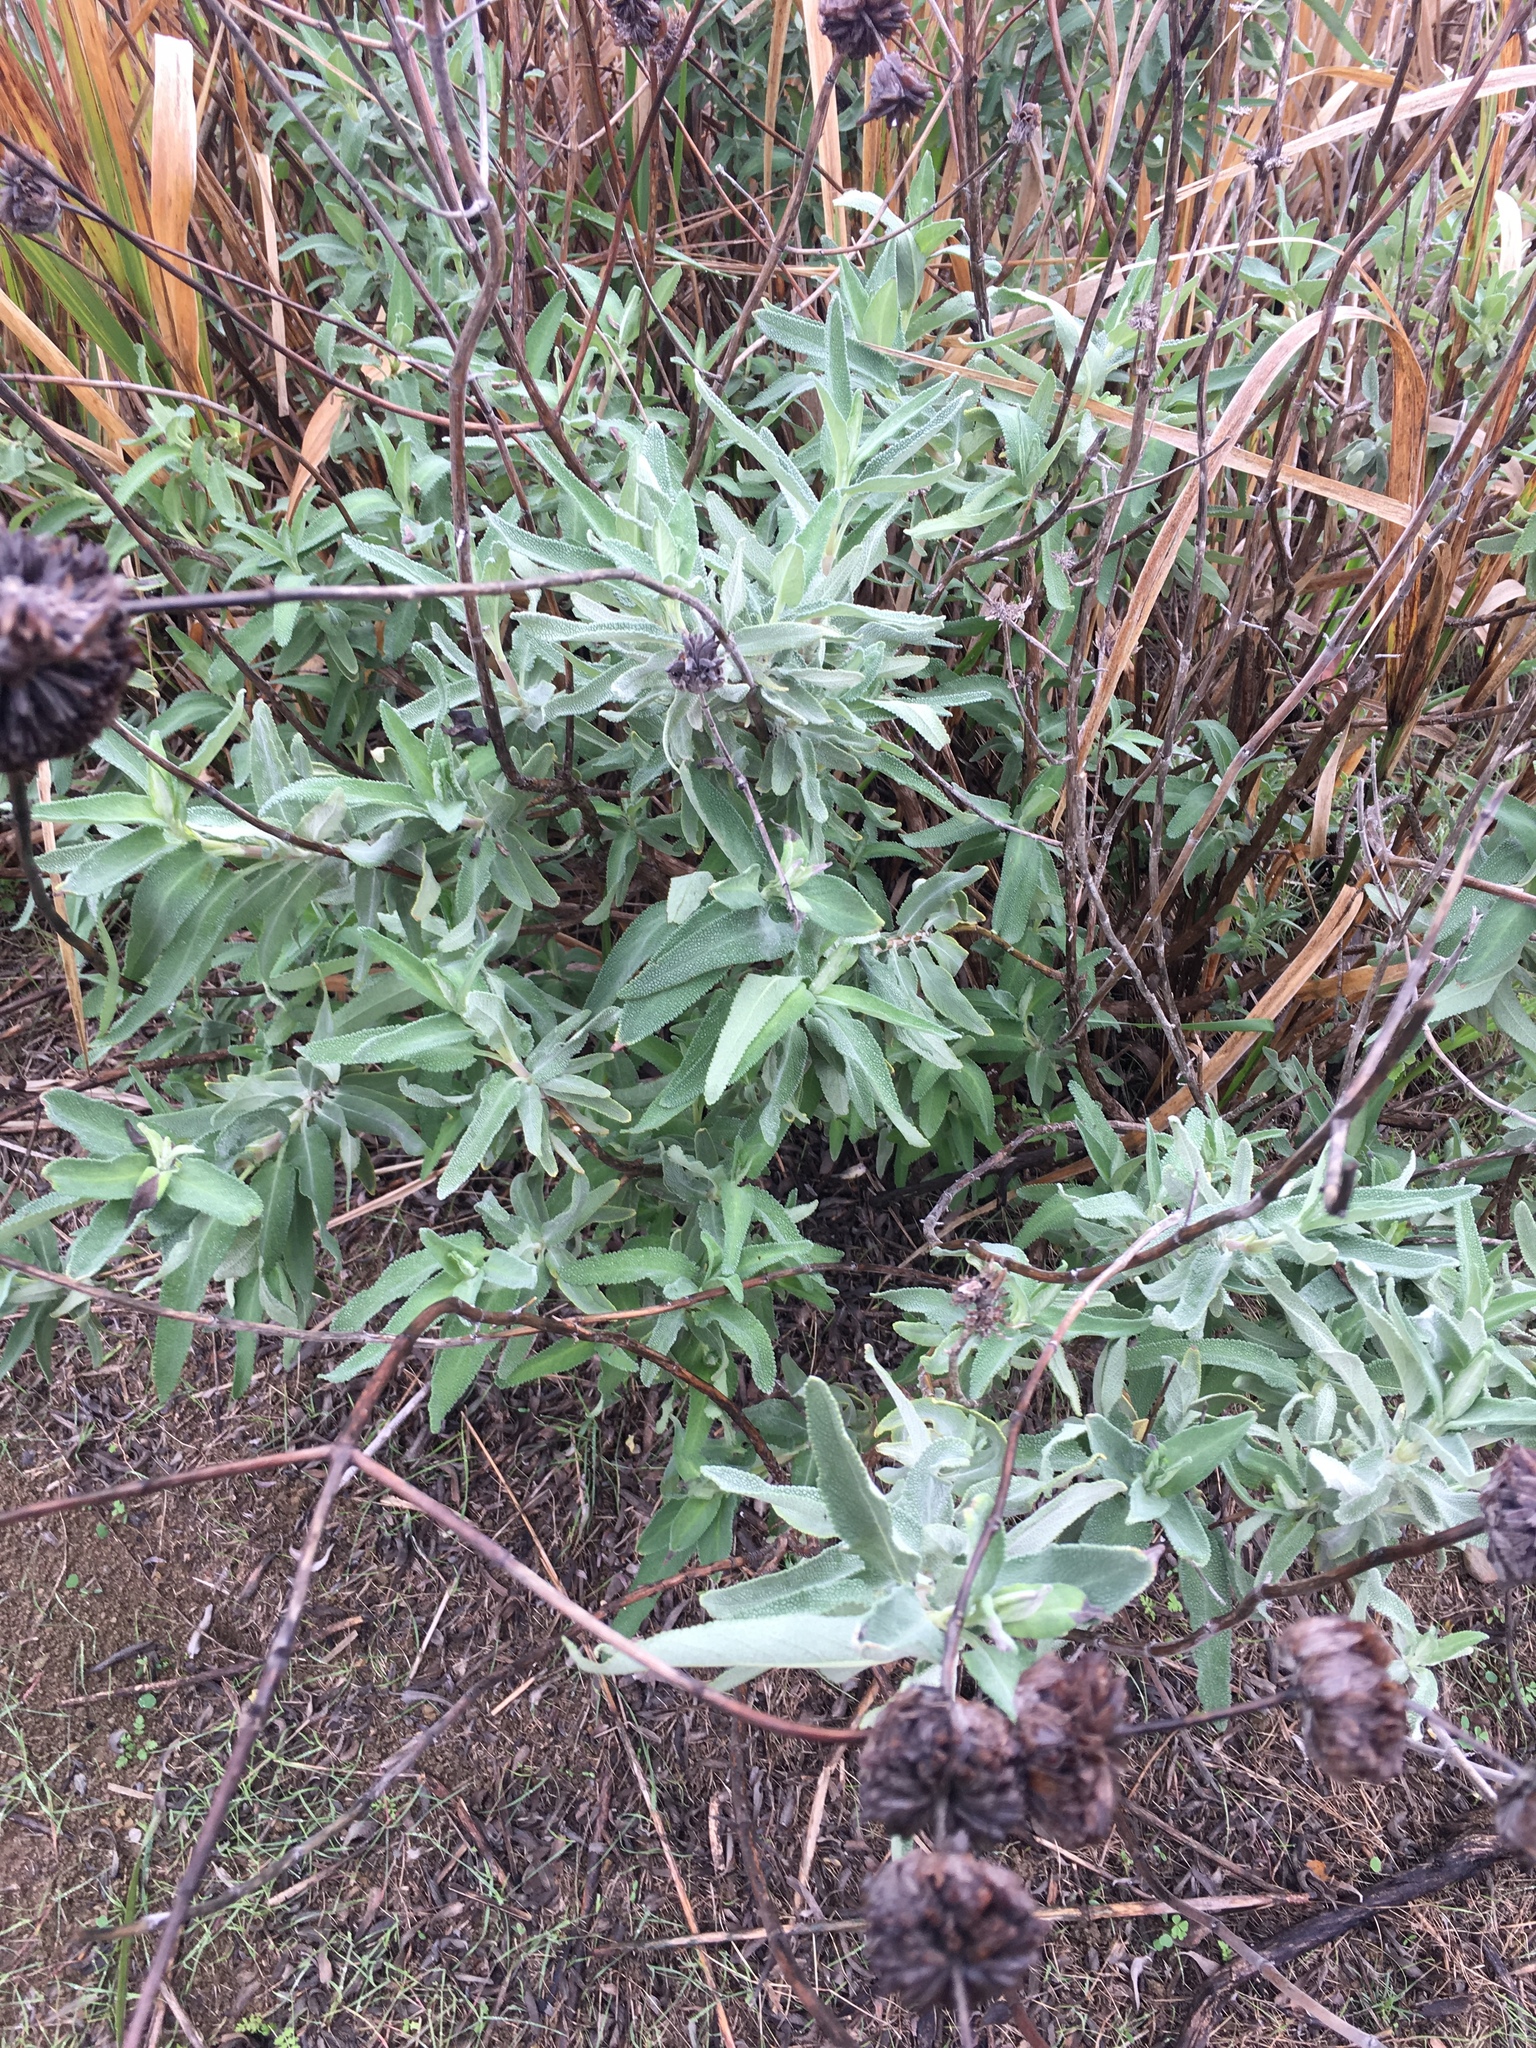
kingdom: Plantae
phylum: Tracheophyta
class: Magnoliopsida
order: Lamiales
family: Lamiaceae
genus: Salvia
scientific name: Salvia leucophylla
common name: Purple sage
